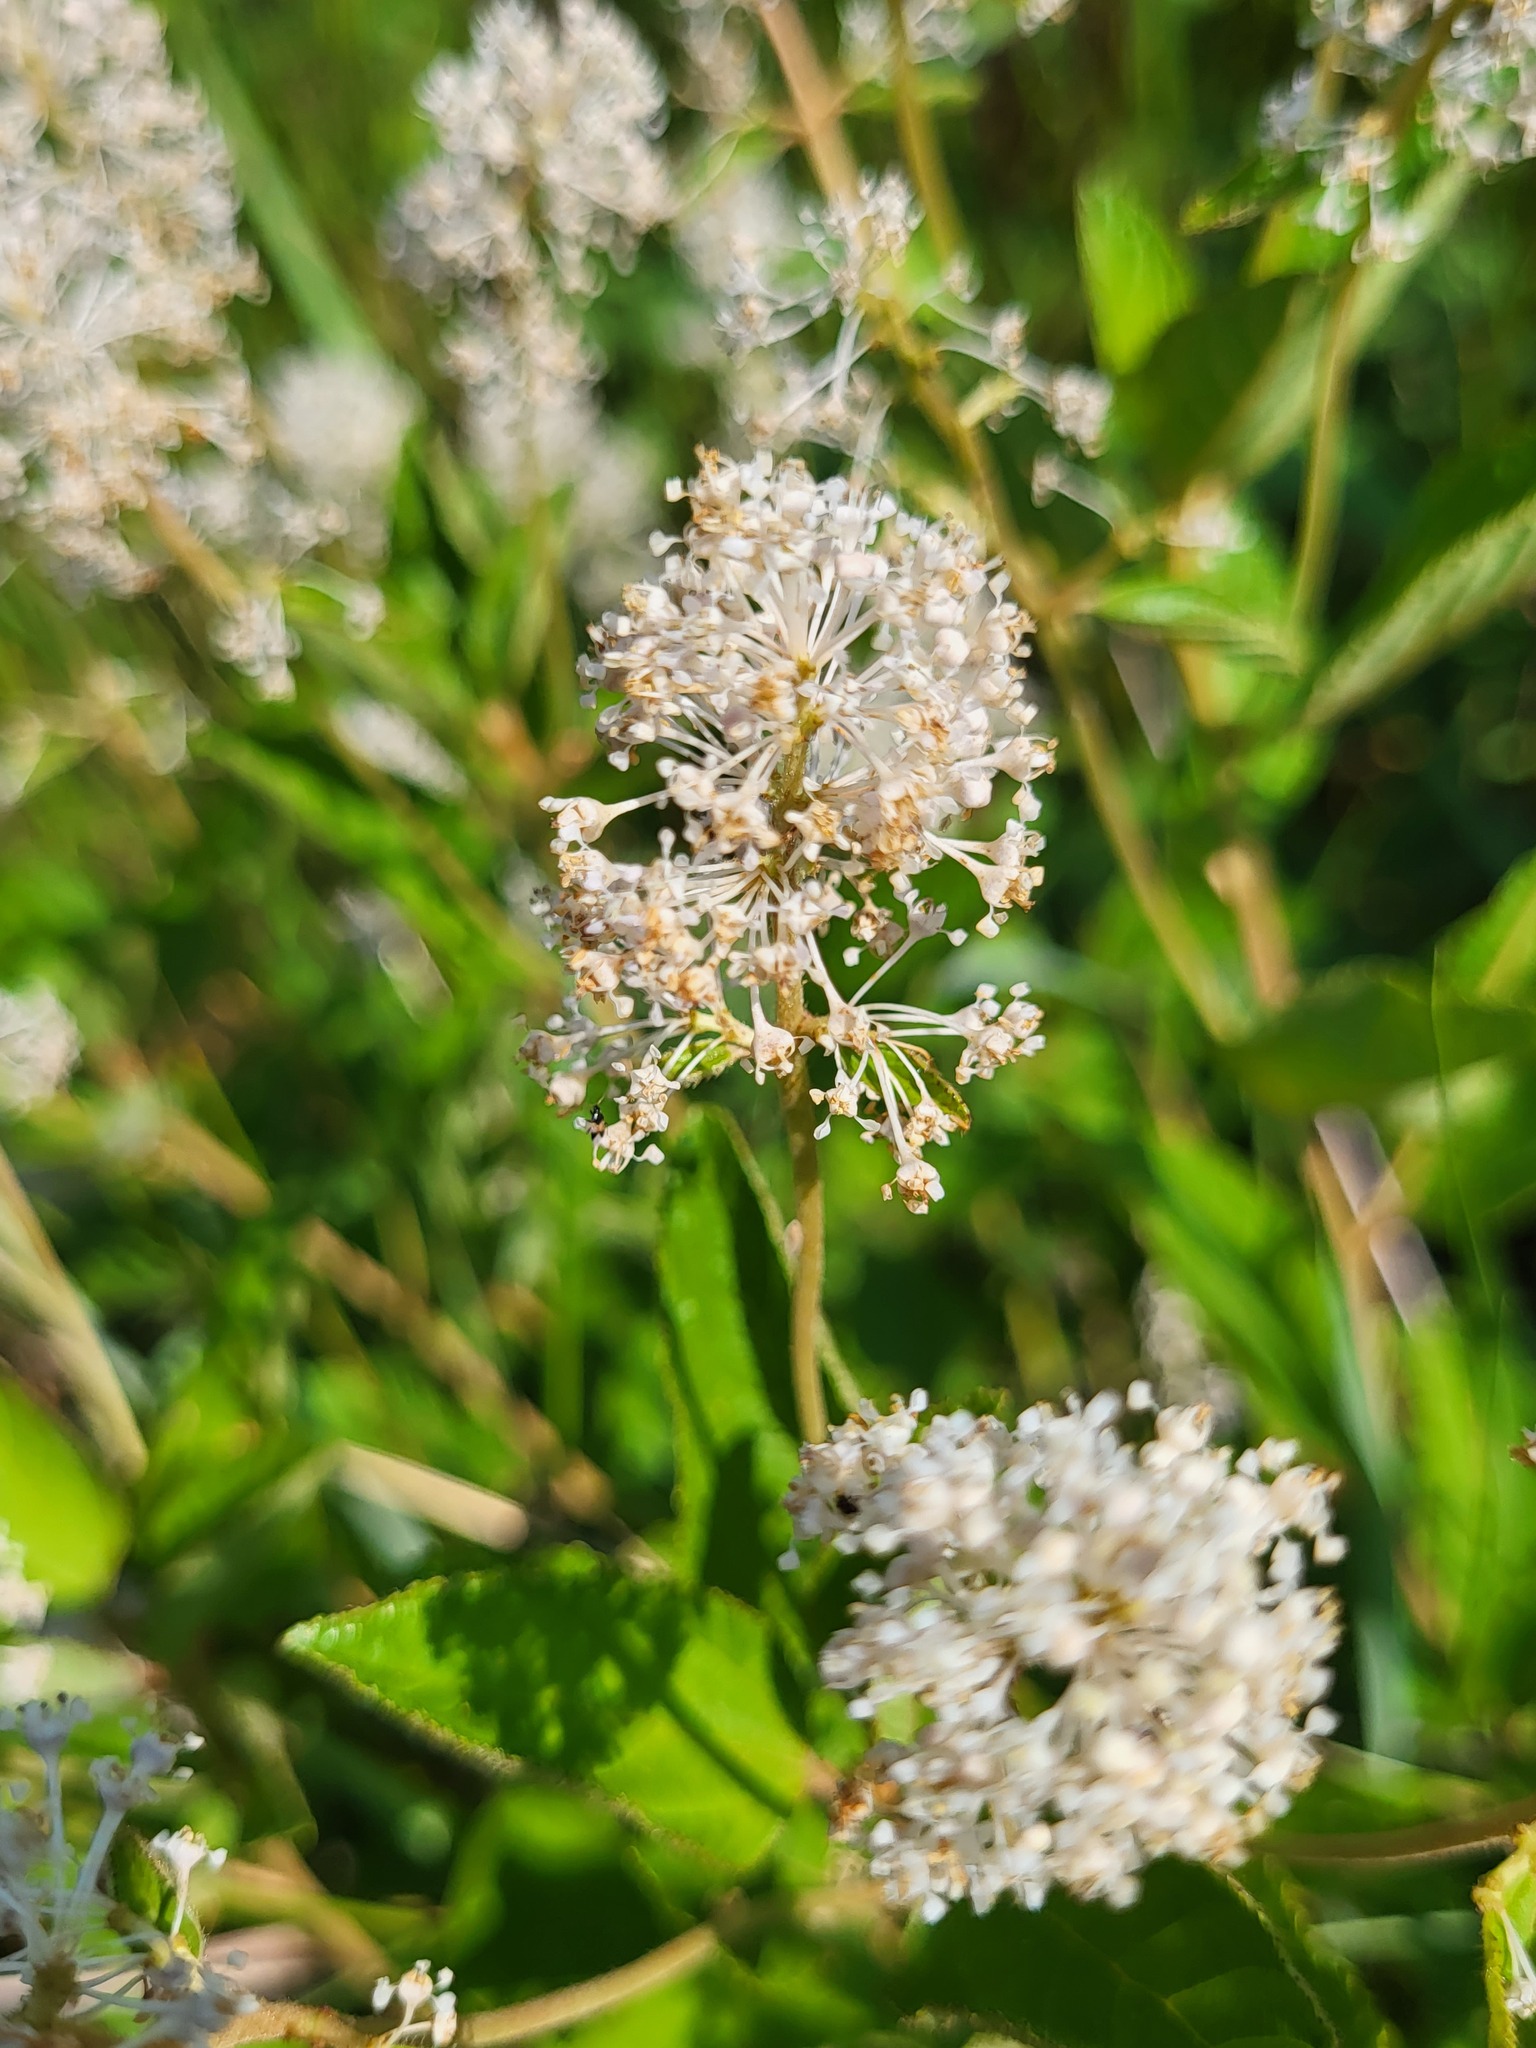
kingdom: Plantae
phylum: Tracheophyta
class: Magnoliopsida
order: Rosales
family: Rhamnaceae
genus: Ceanothus
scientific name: Ceanothus americanus
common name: Redroot
